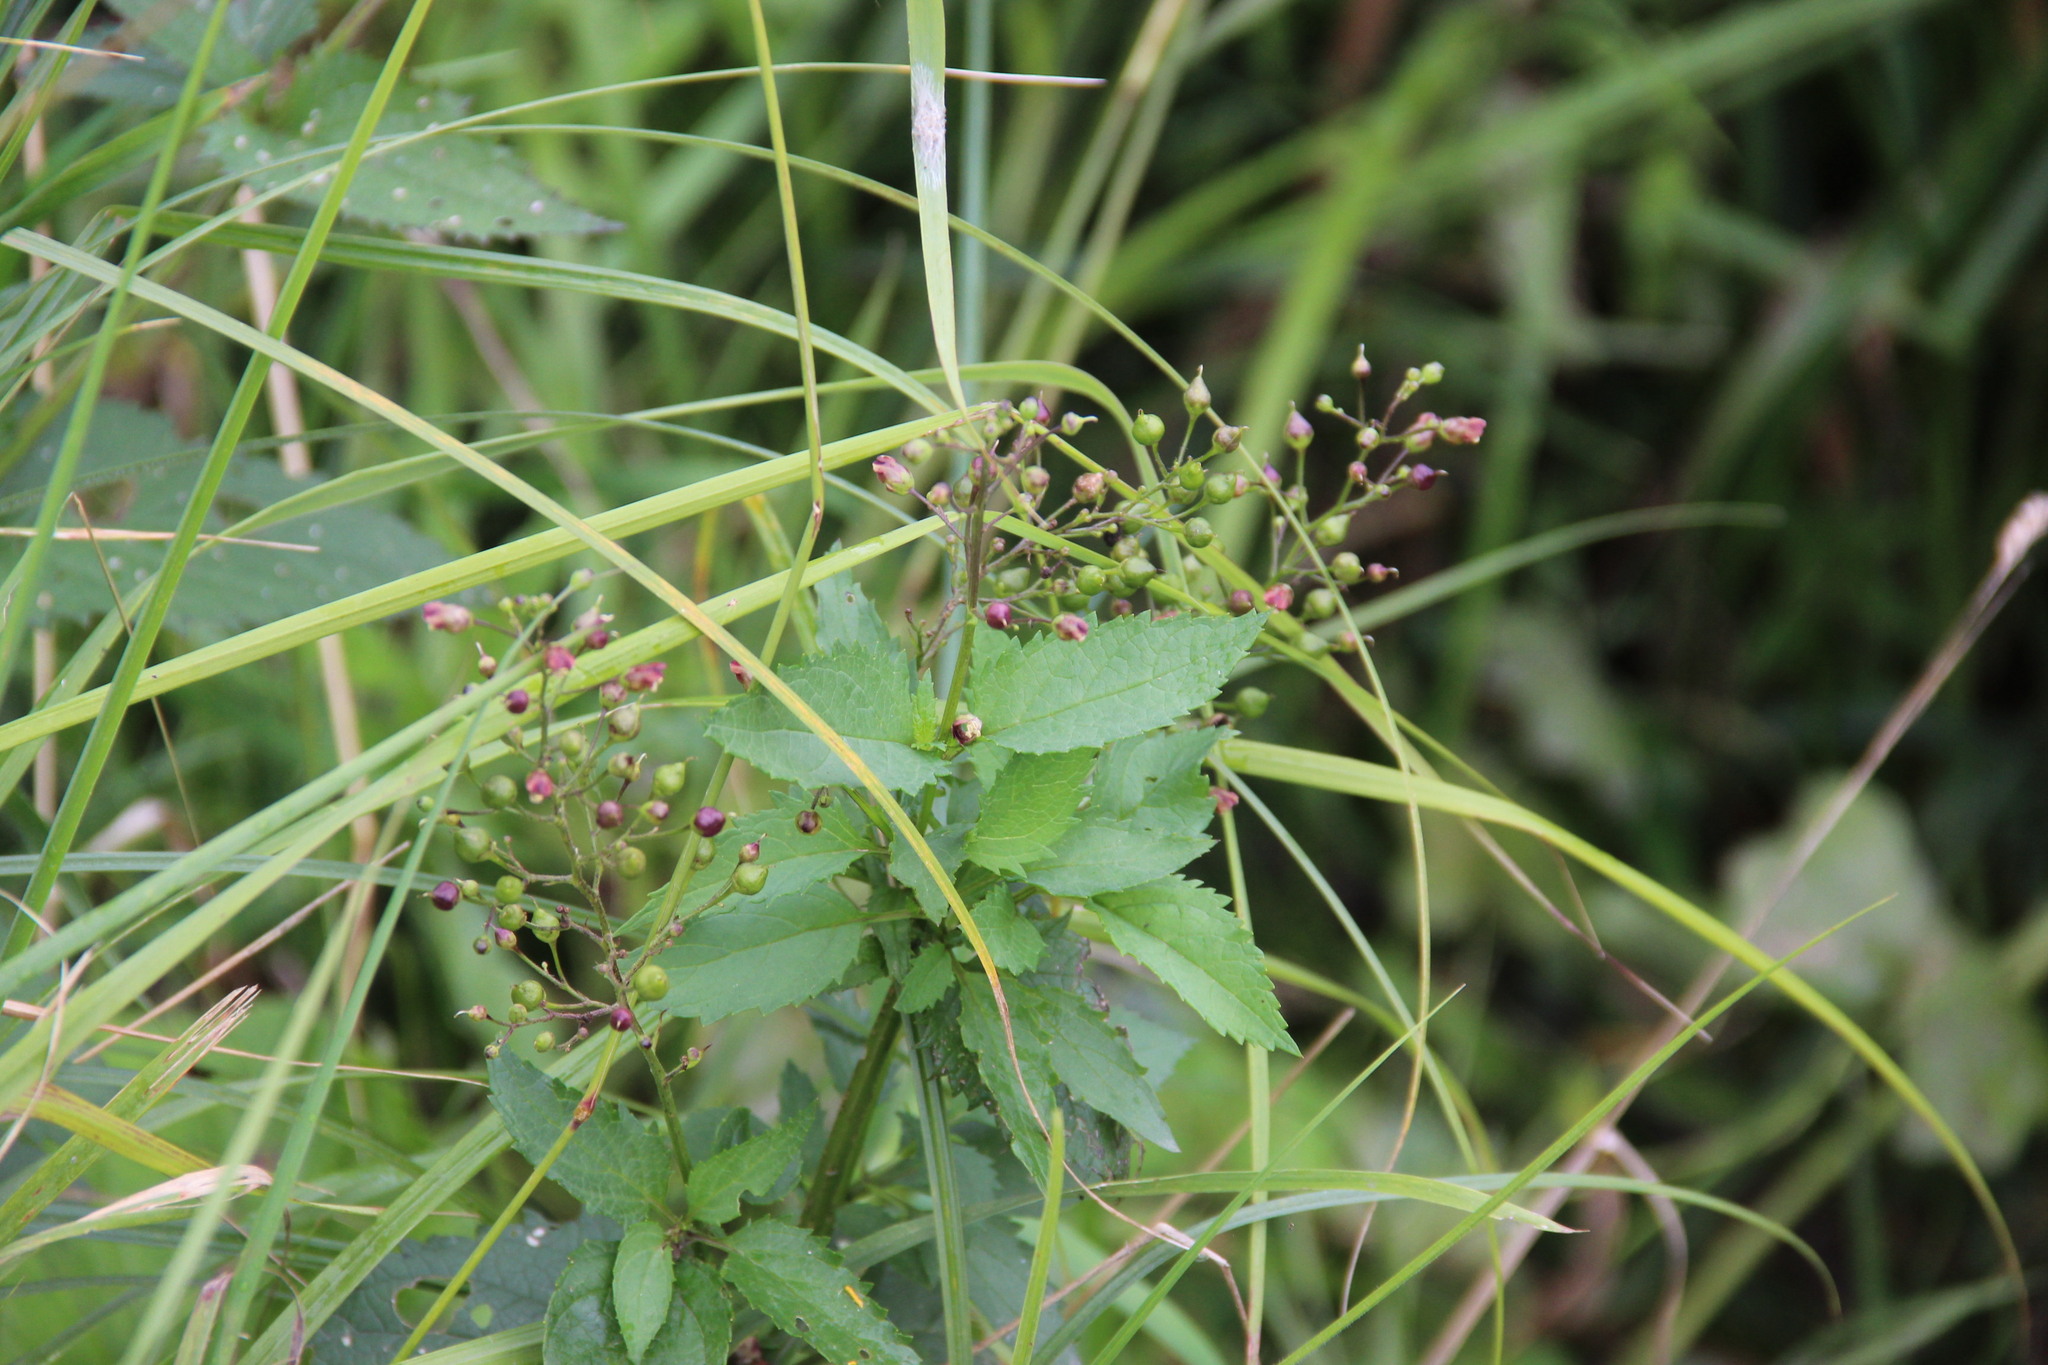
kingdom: Plantae
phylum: Tracheophyta
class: Magnoliopsida
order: Lamiales
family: Scrophulariaceae
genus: Scrophularia
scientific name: Scrophularia nodosa
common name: Common figwort
